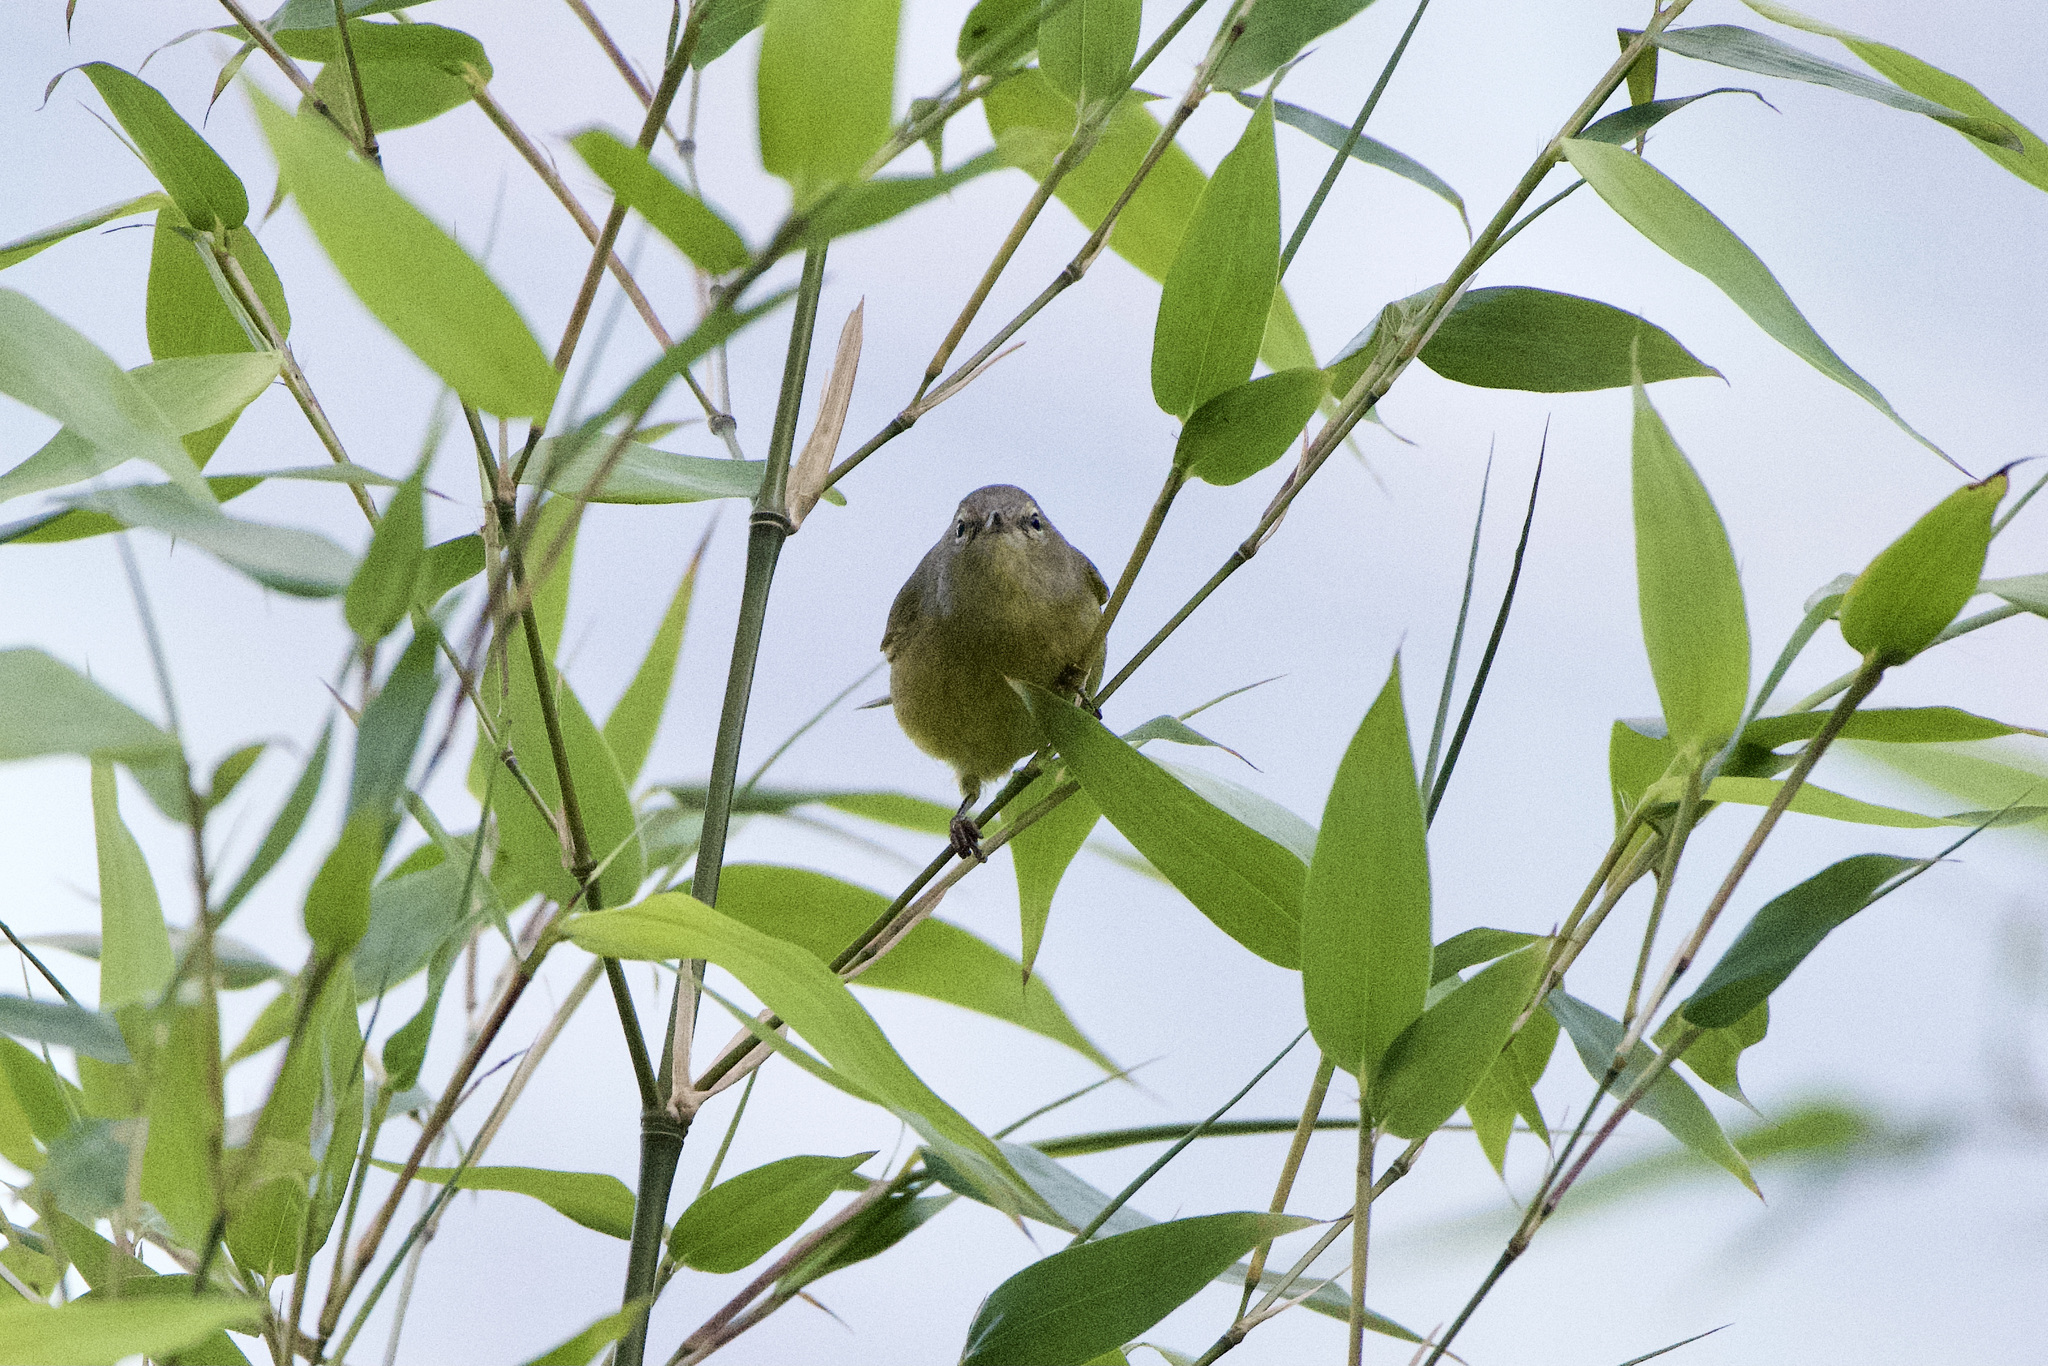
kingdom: Animalia
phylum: Chordata
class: Aves
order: Passeriformes
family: Parulidae
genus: Leiothlypis
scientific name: Leiothlypis celata
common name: Orange-crowned warbler
